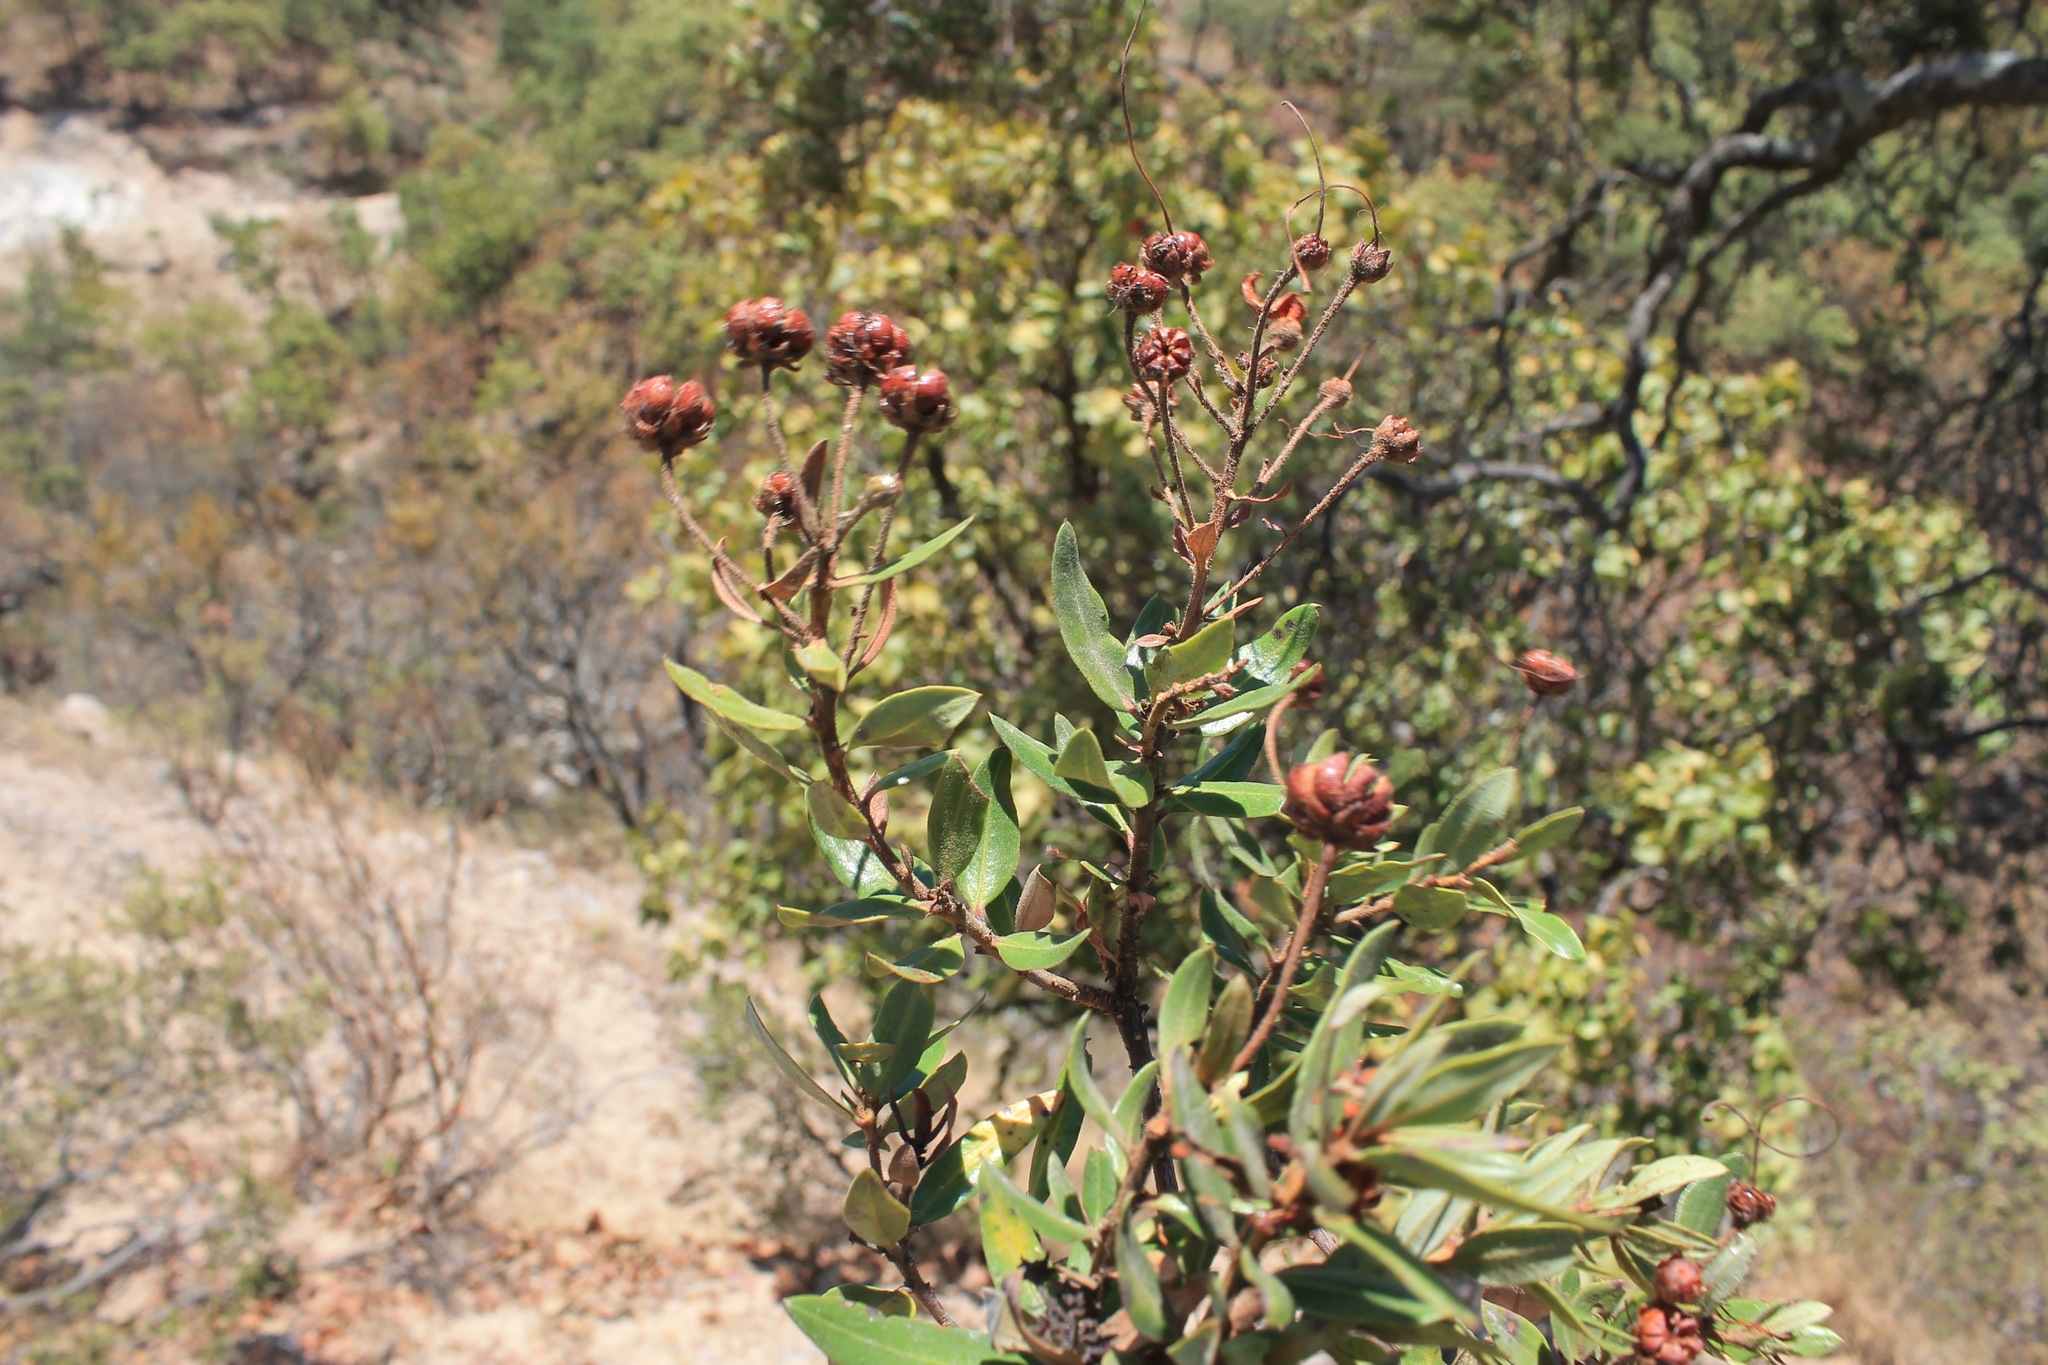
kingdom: Plantae
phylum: Tracheophyta
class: Magnoliopsida
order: Ericales
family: Ericaceae
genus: Bejaria
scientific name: Bejaria aestuans
